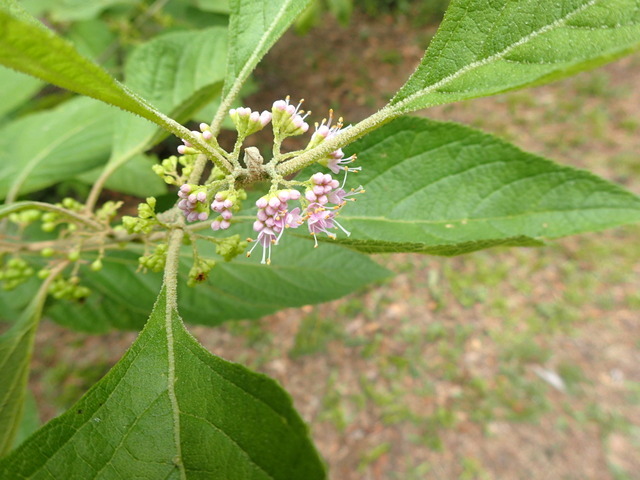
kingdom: Plantae
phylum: Tracheophyta
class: Magnoliopsida
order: Lamiales
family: Lamiaceae
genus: Callicarpa
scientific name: Callicarpa americana
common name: American beautyberry
